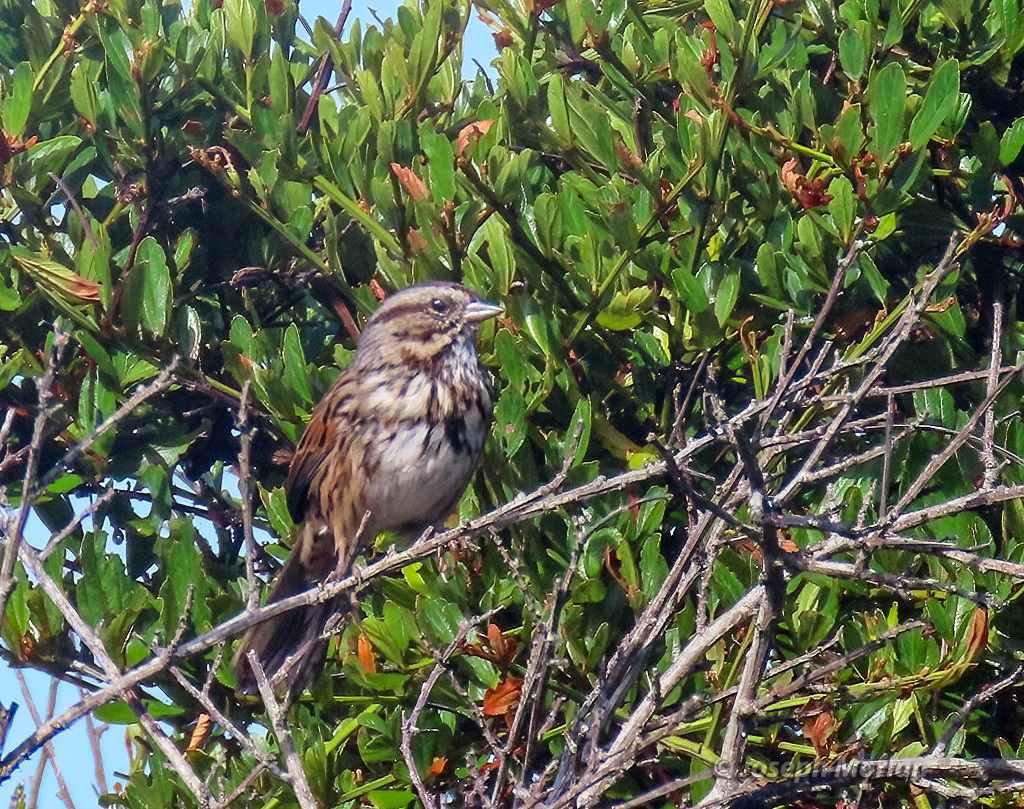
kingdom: Animalia
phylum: Chordata
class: Aves
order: Passeriformes
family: Passerellidae
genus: Melospiza
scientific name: Melospiza melodia
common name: Song sparrow
